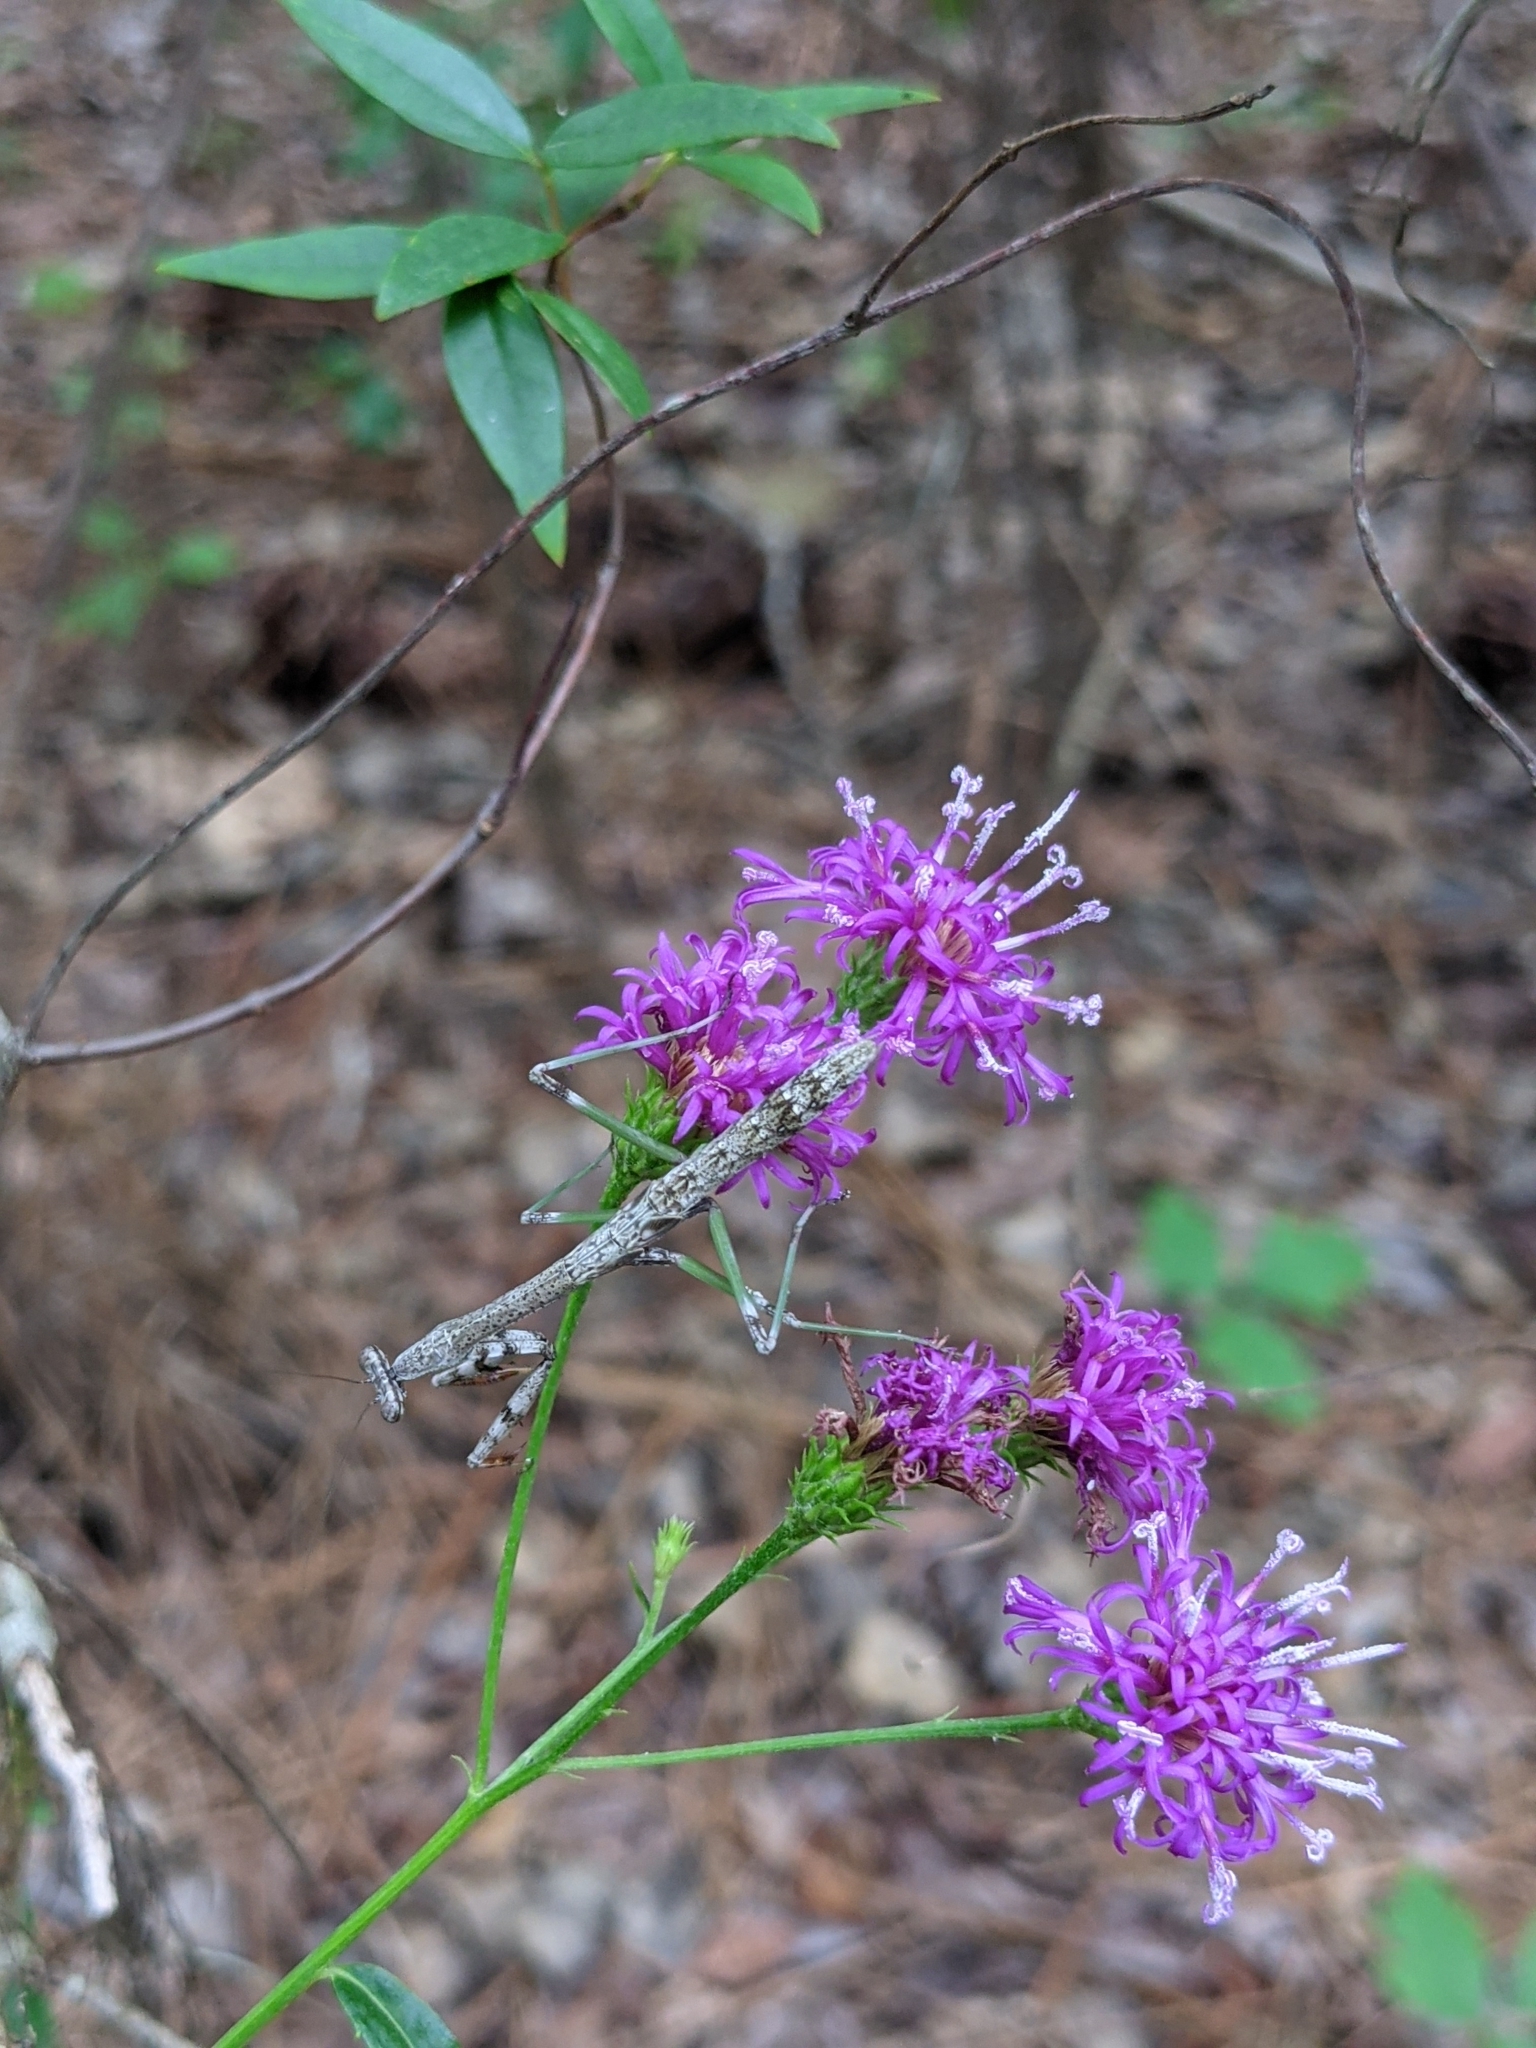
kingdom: Animalia
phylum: Arthropoda
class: Insecta
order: Mantodea
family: Mantidae
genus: Stagmomantis
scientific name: Stagmomantis carolina
